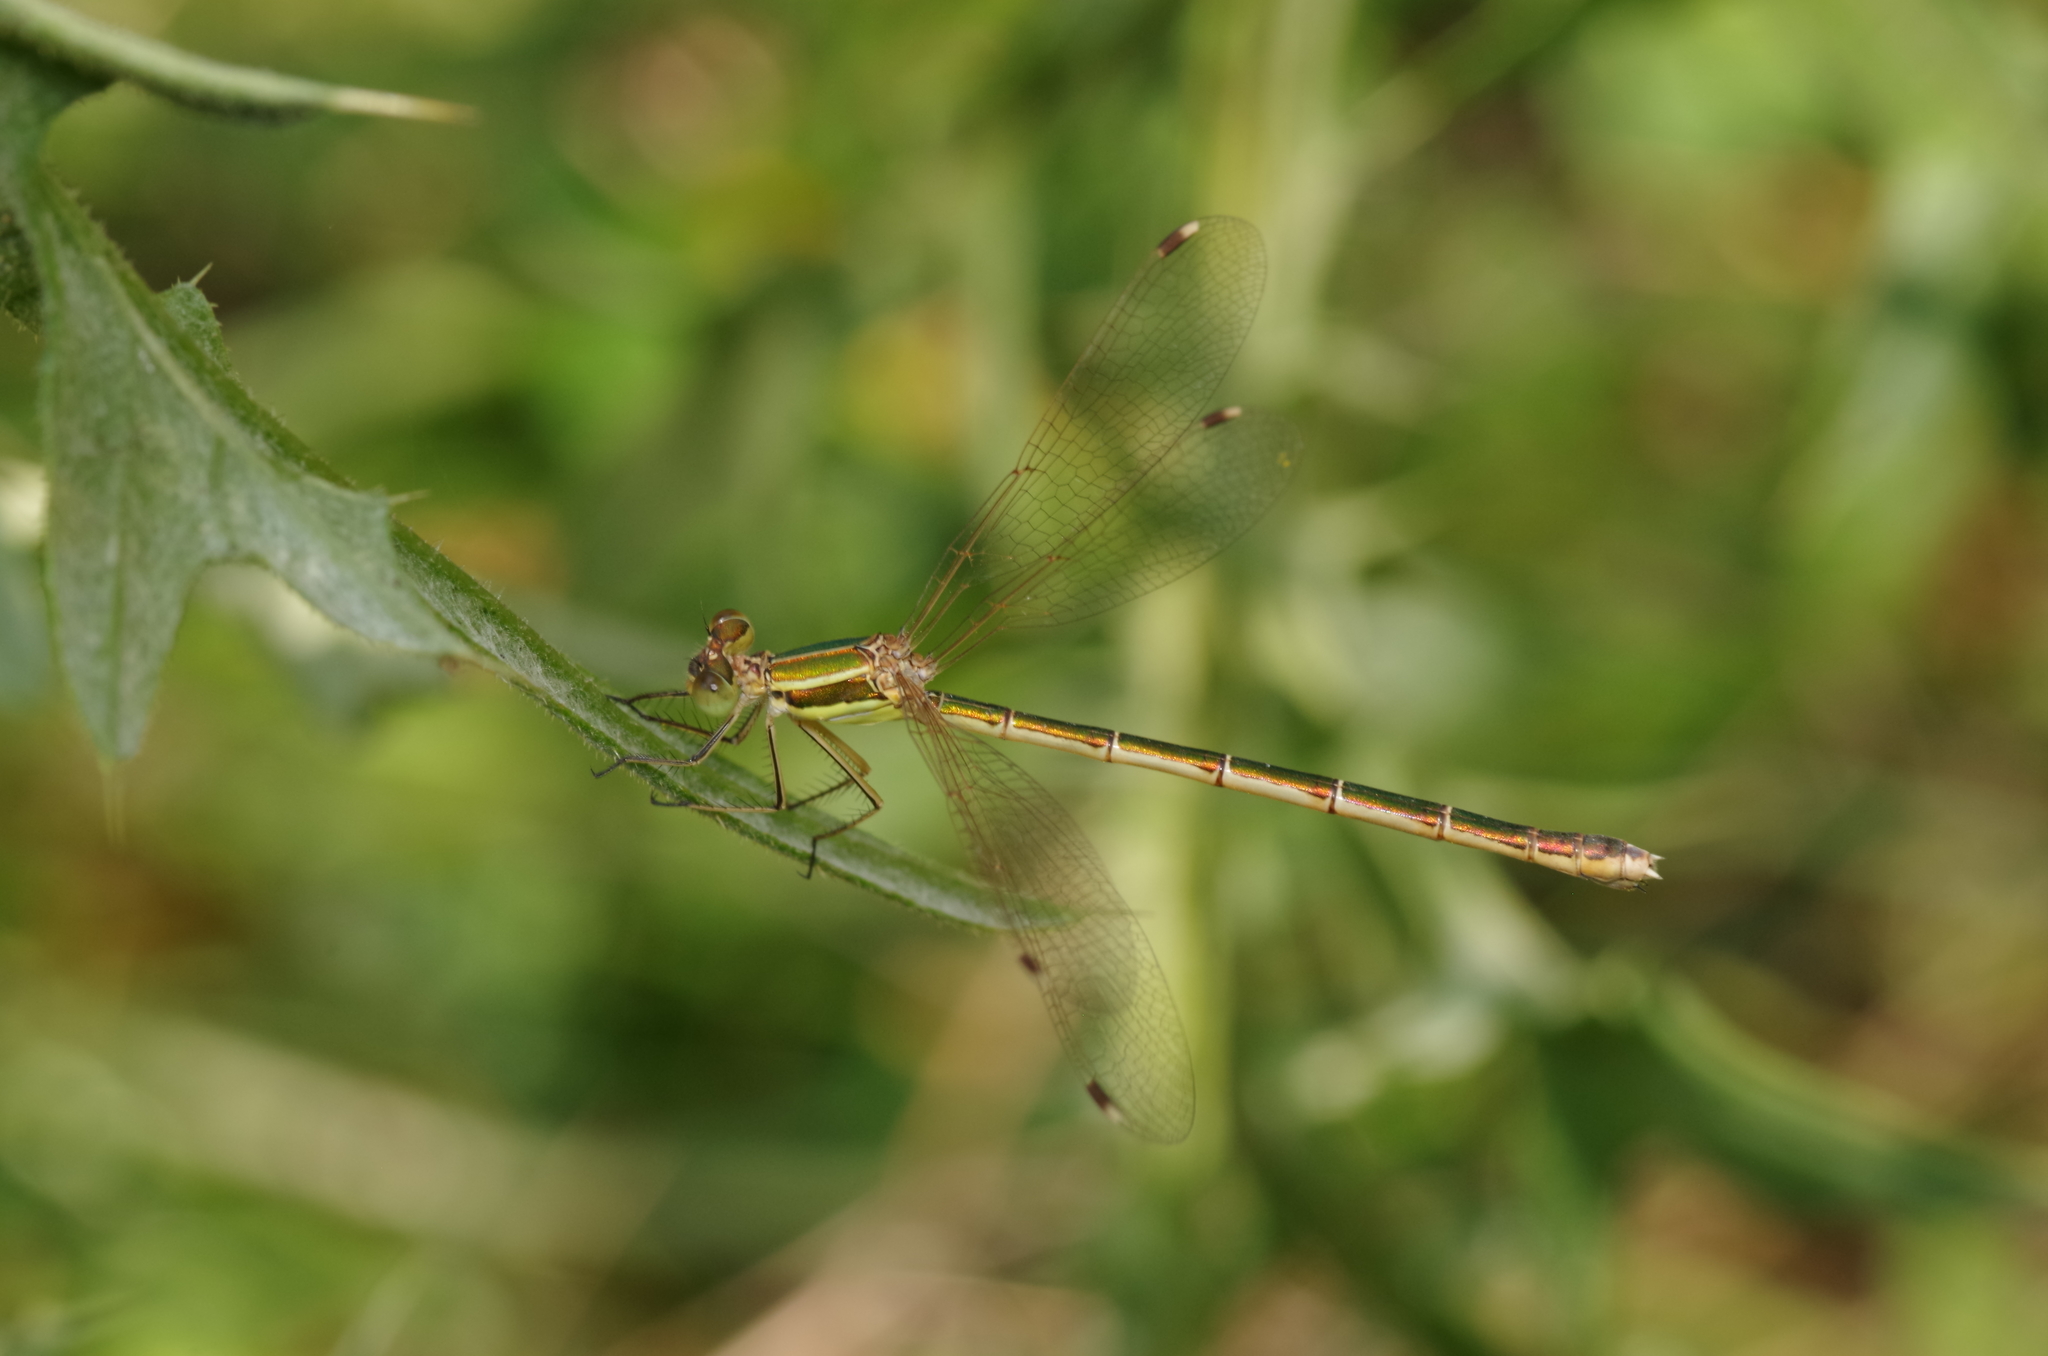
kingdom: Animalia
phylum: Arthropoda
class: Insecta
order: Odonata
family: Lestidae
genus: Lestes
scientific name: Lestes barbarus
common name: Migrant spreadwing
